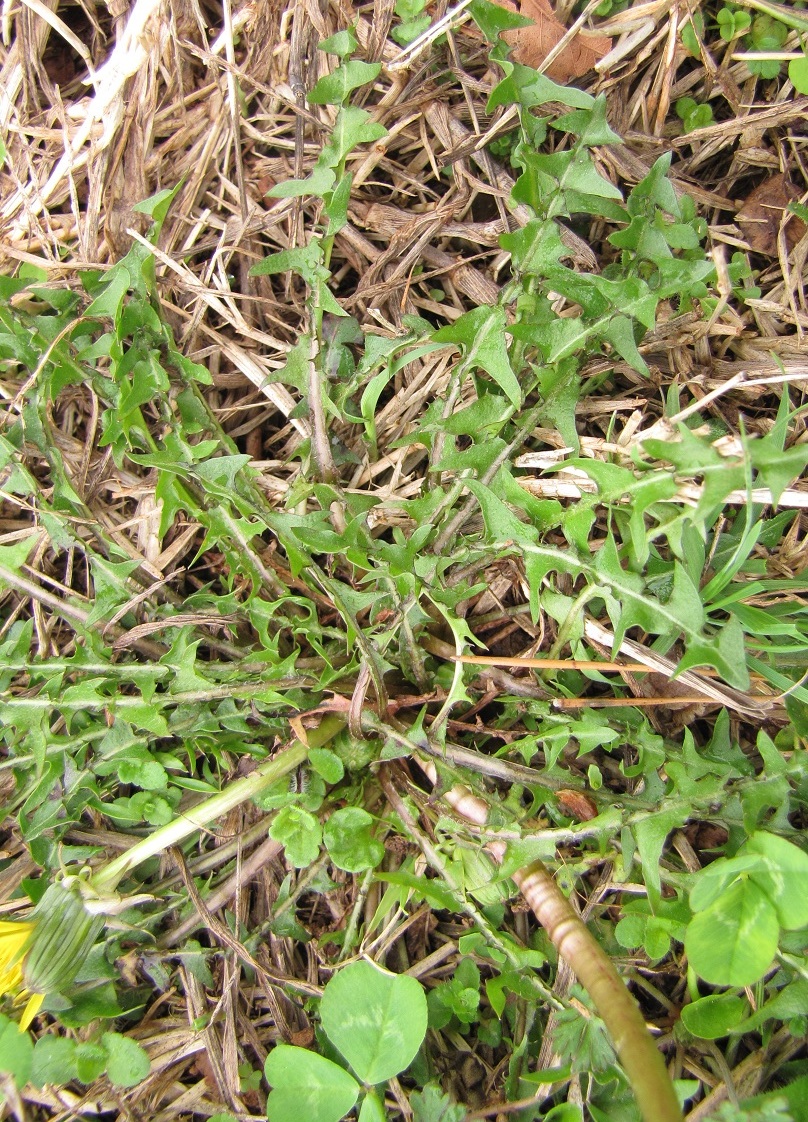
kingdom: Plantae
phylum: Tracheophyta
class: Magnoliopsida
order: Asterales
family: Asteraceae
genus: Taraxacum
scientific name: Taraxacum officinale
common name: Common dandelion
